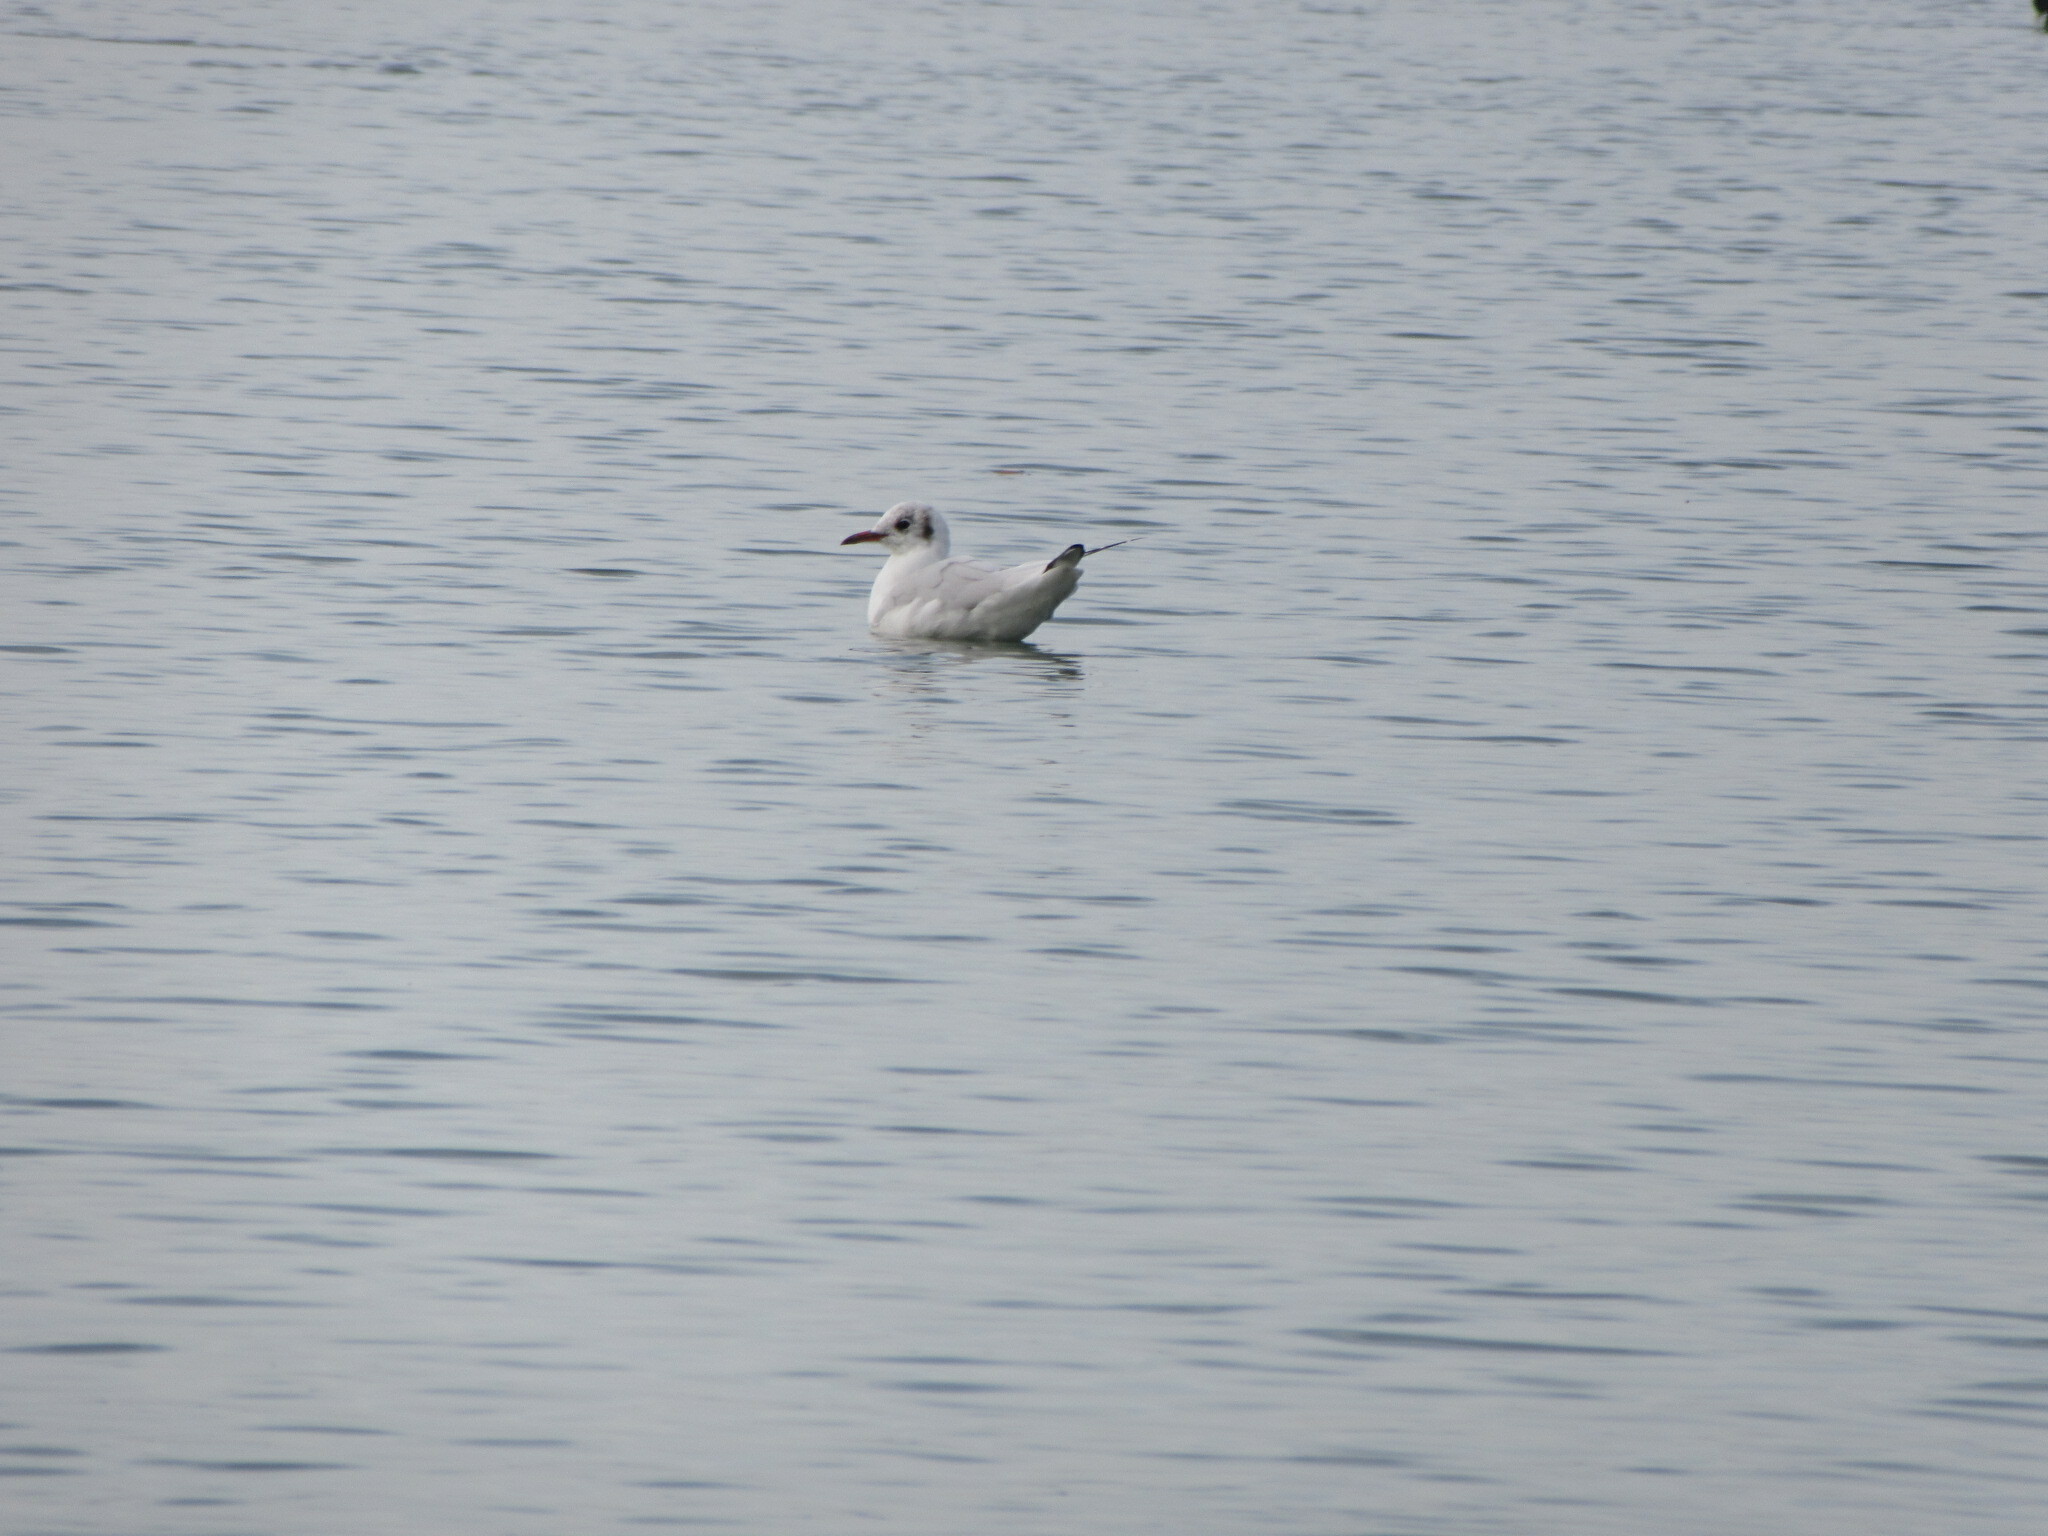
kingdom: Animalia
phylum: Chordata
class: Aves
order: Charadriiformes
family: Laridae
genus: Chroicocephalus
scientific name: Chroicocephalus ridibundus
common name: Black-headed gull
